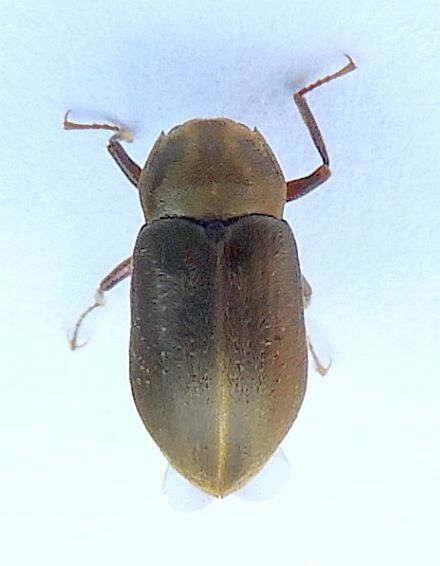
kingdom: Animalia
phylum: Arthropoda
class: Insecta
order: Coleoptera
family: Dryopidae
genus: Helichus
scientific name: Helichus lithophilus
